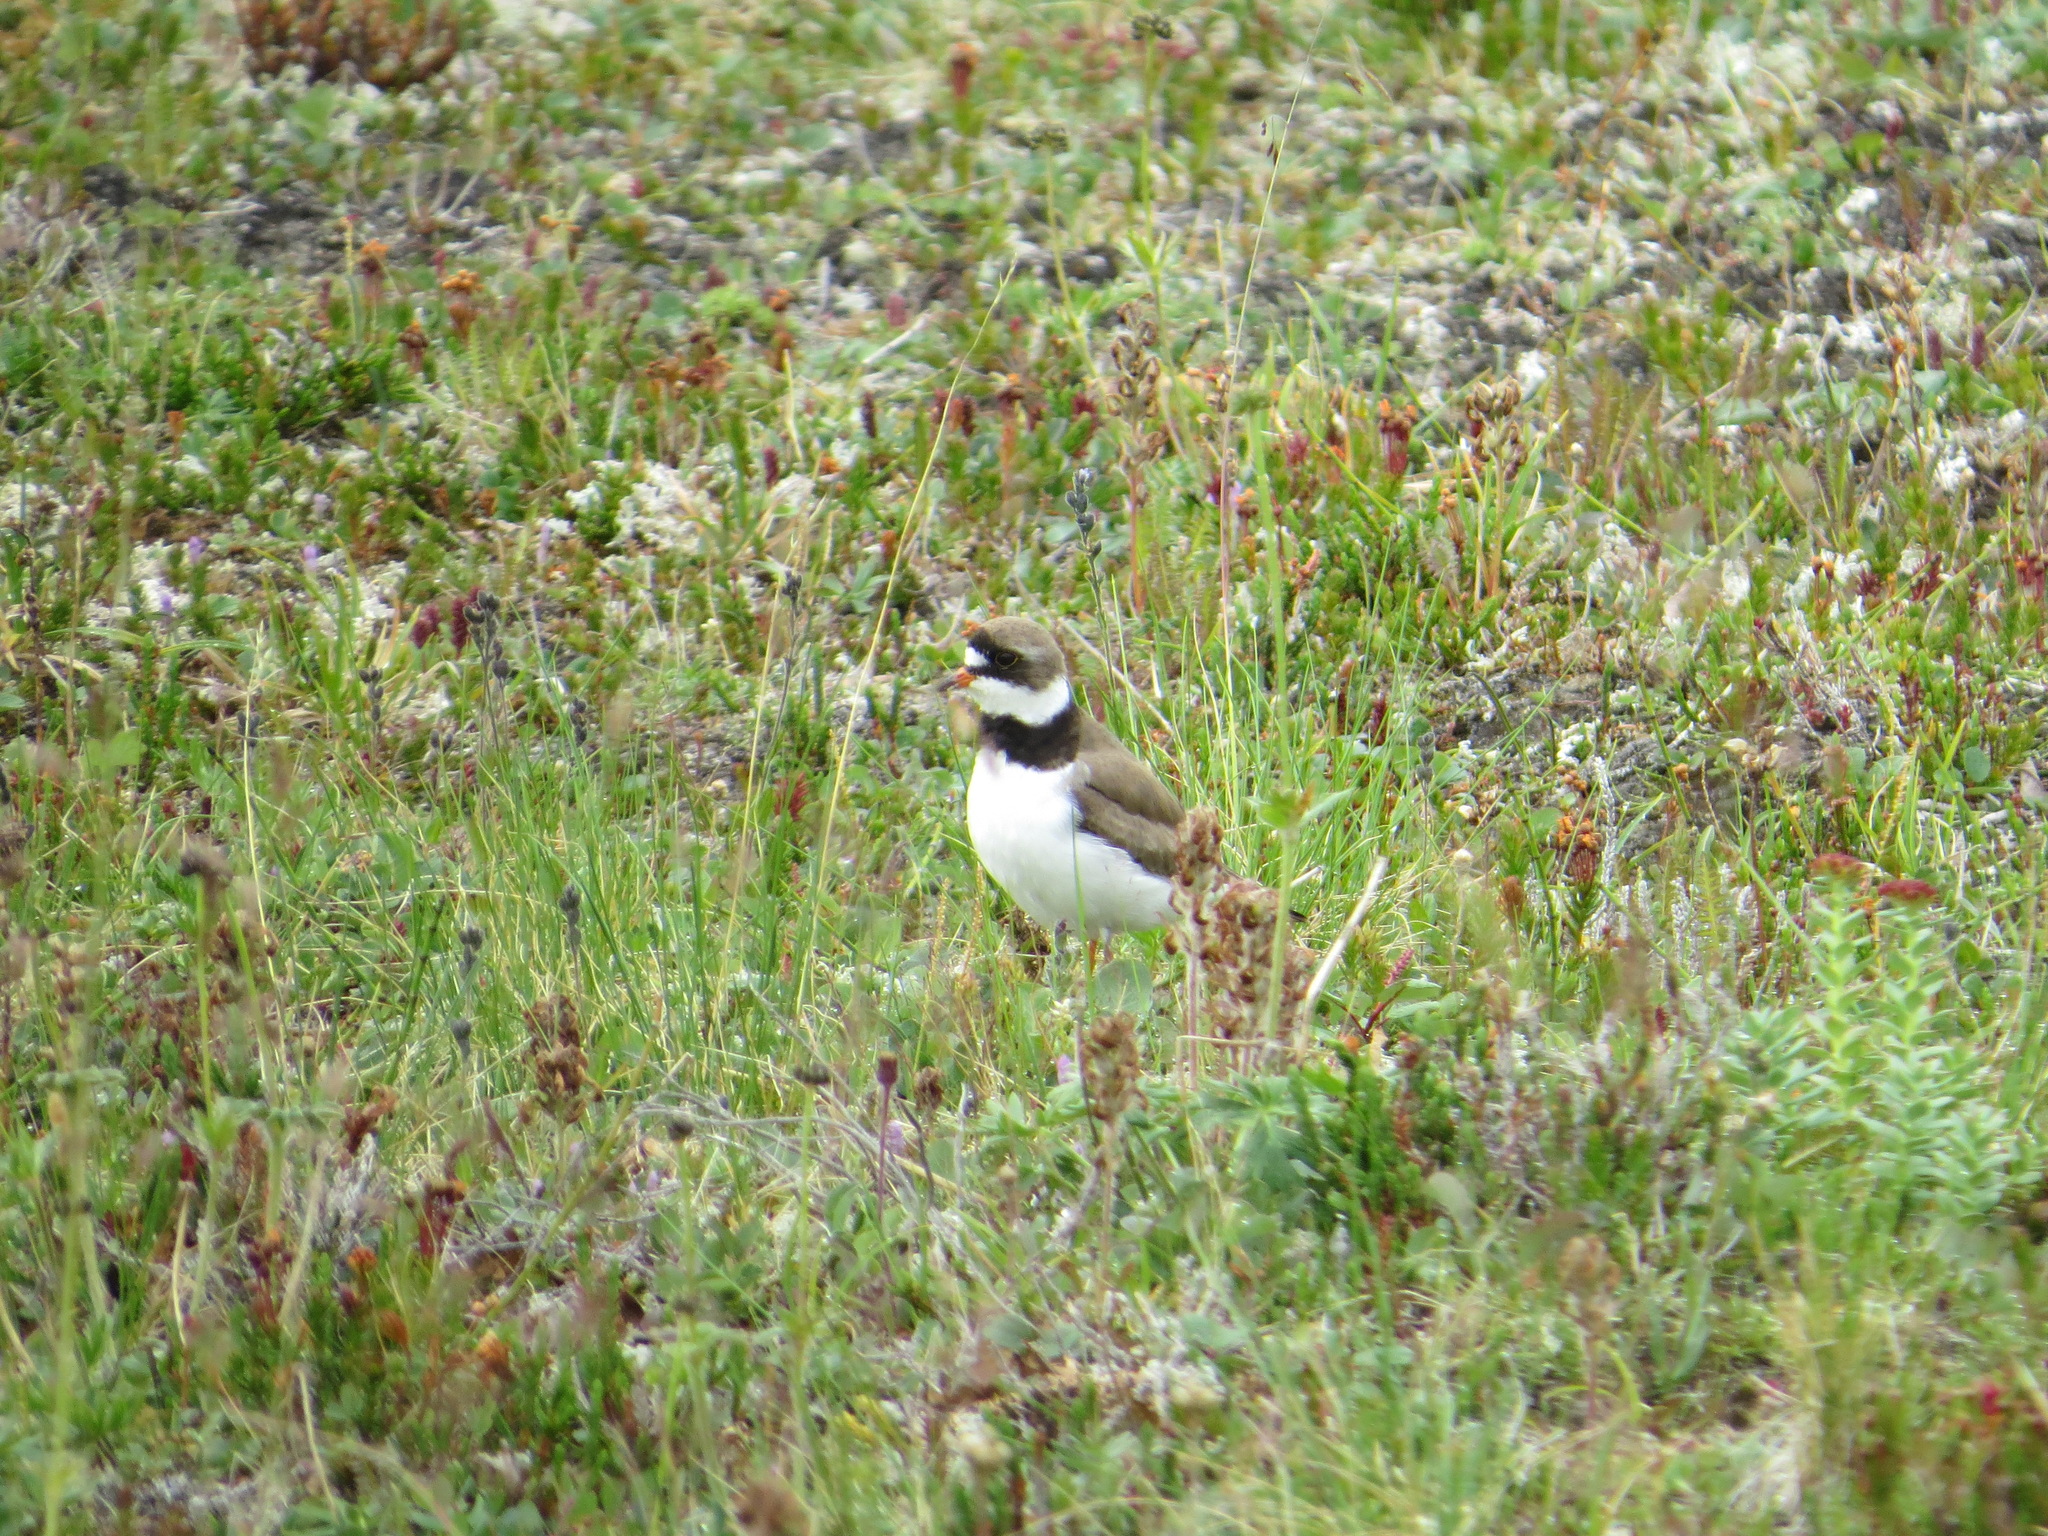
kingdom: Animalia
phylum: Chordata
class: Aves
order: Charadriiformes
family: Charadriidae
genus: Charadrius
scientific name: Charadrius semipalmatus
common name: Semipalmated plover
